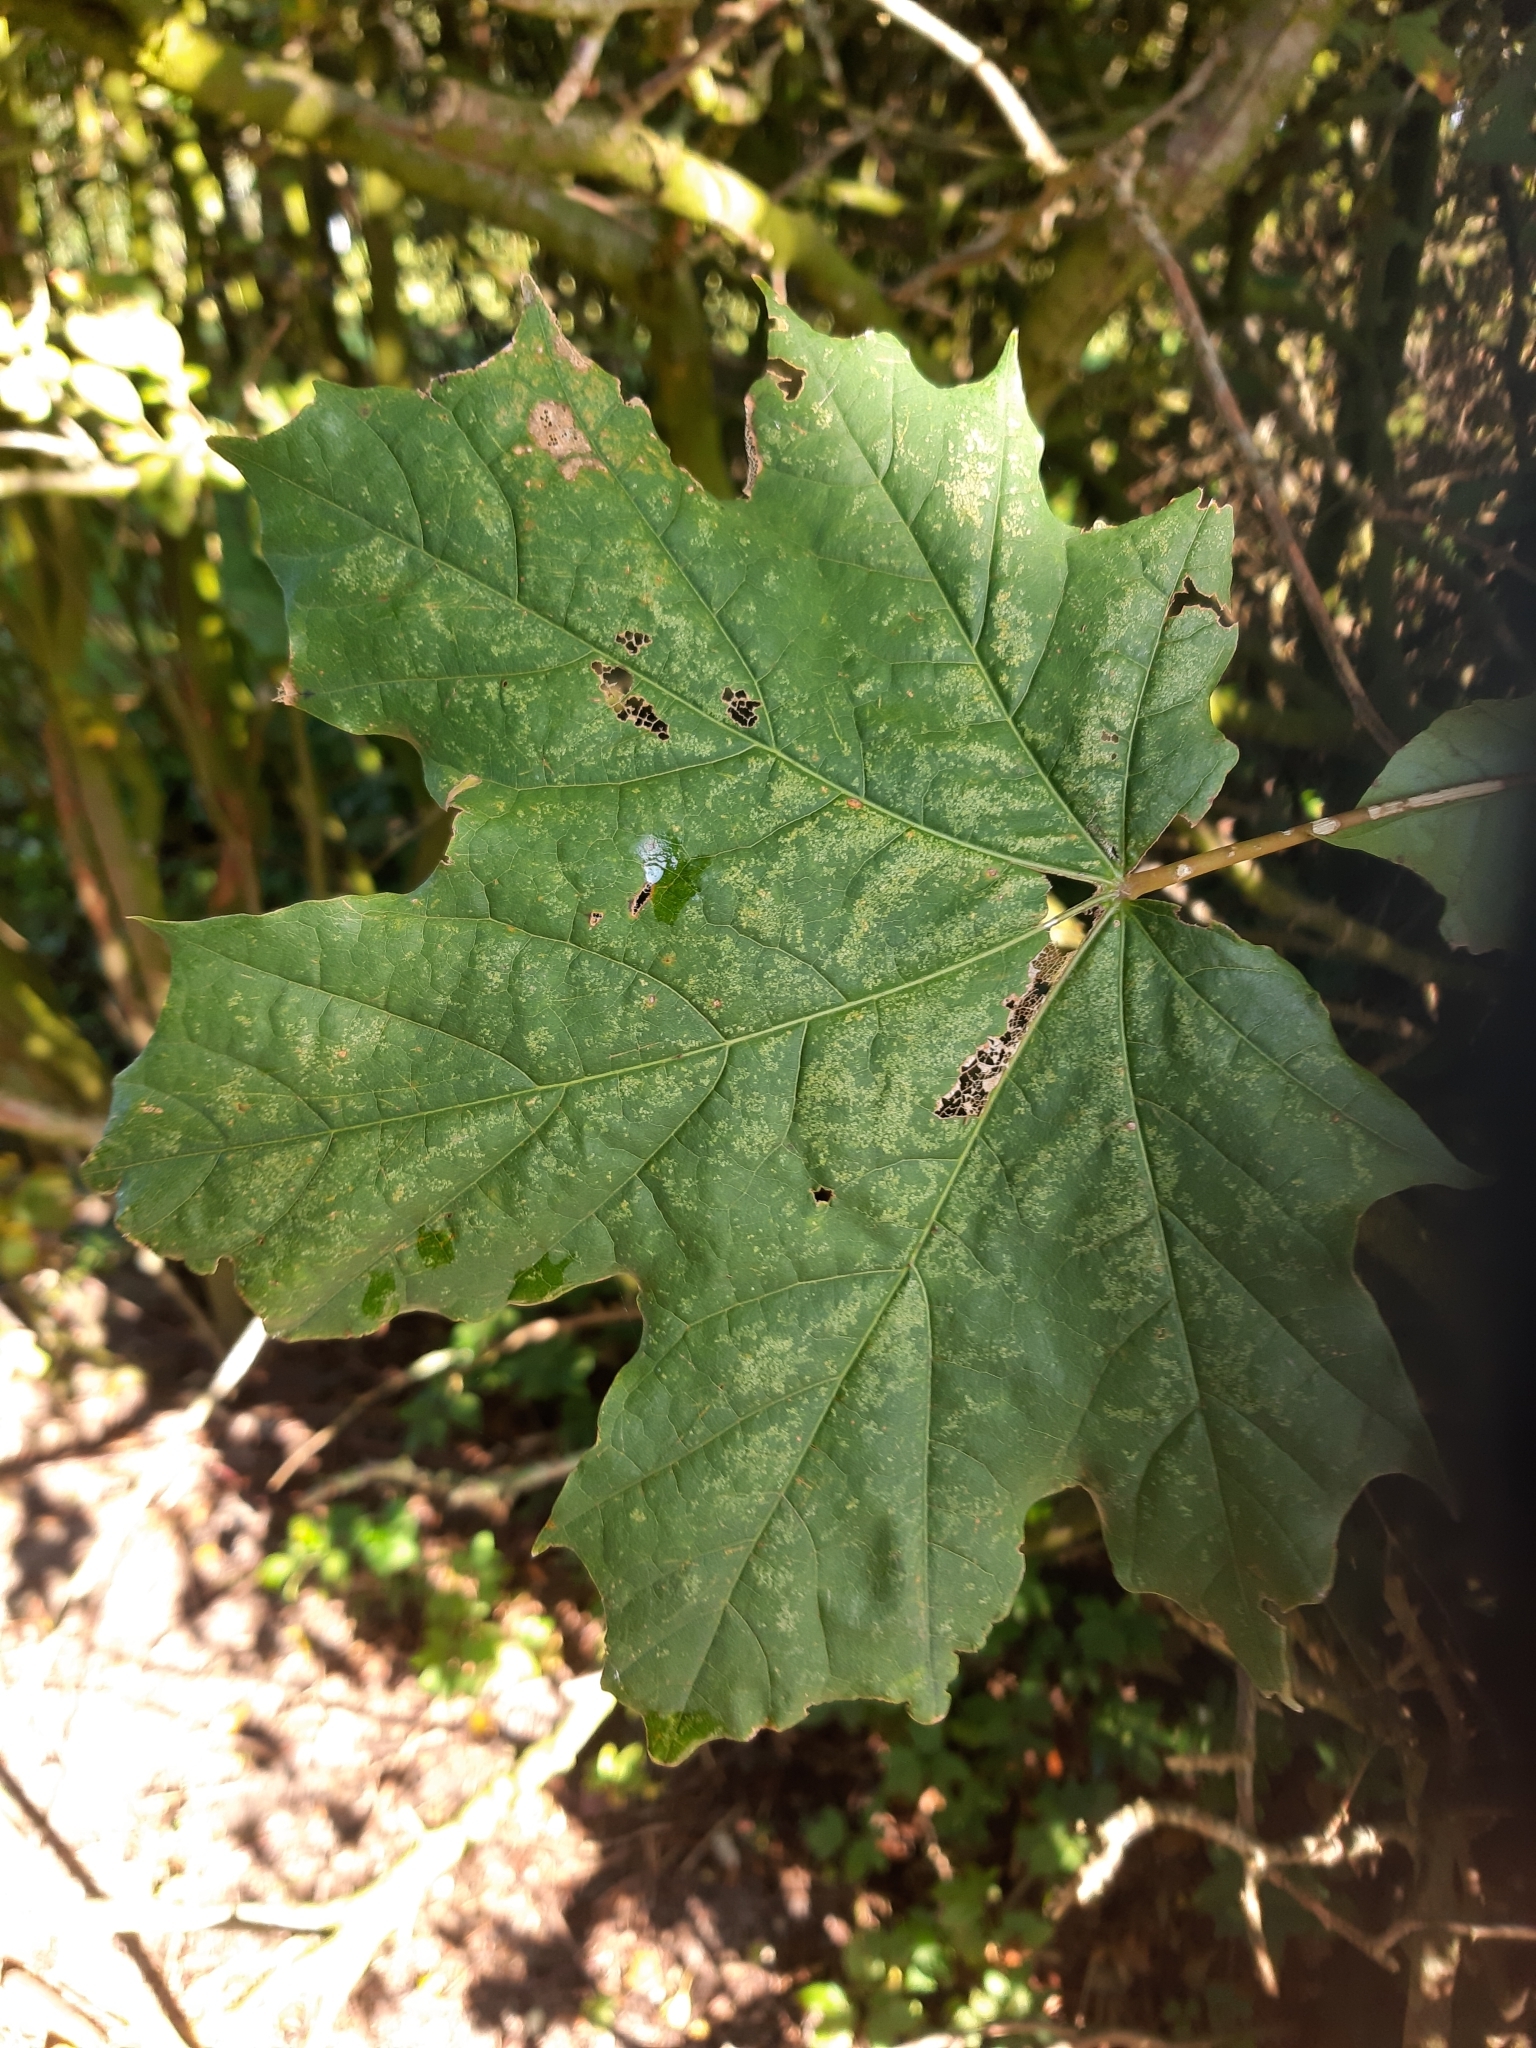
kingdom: Plantae
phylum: Tracheophyta
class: Magnoliopsida
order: Sapindales
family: Sapindaceae
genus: Acer
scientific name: Acer platanoides
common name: Norway maple
